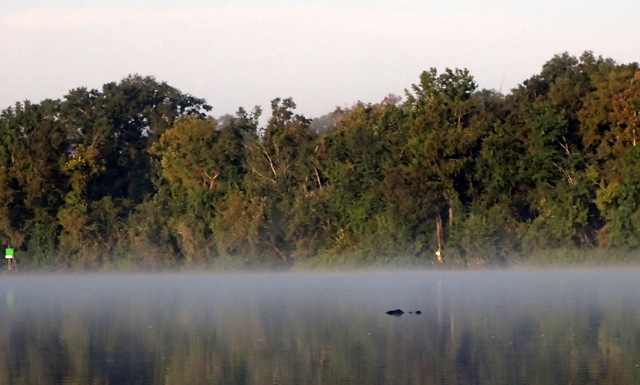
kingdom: Animalia
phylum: Chordata
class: Crocodylia
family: Alligatoridae
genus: Alligator
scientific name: Alligator mississippiensis
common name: American alligator
